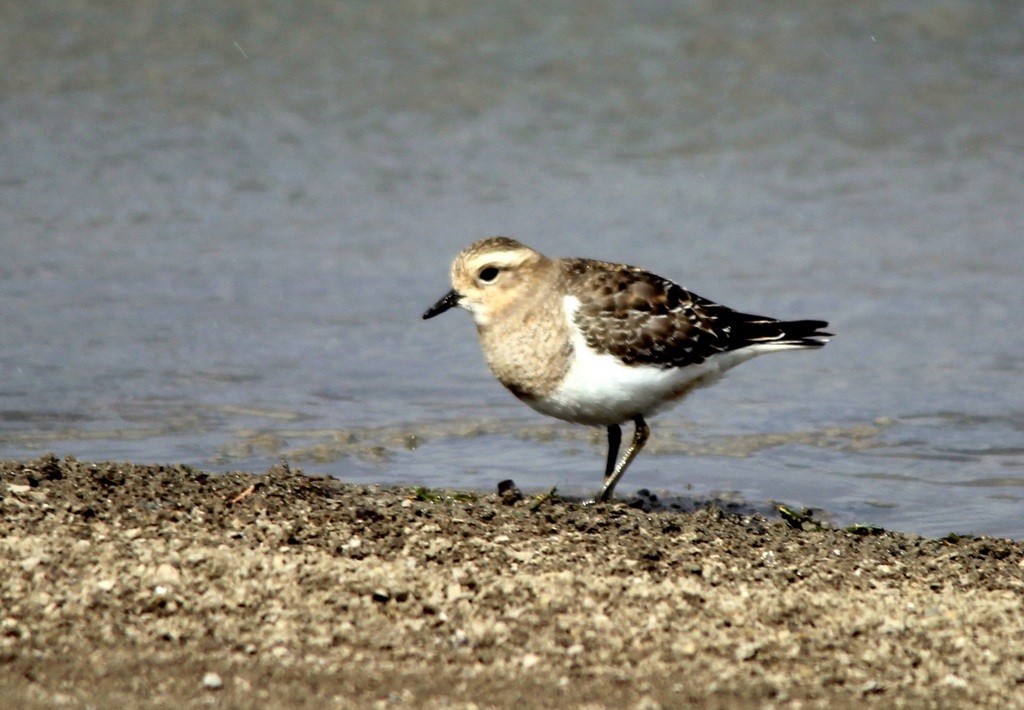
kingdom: Animalia
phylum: Chordata
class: Aves
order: Charadriiformes
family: Charadriidae
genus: Charadrius
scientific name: Charadrius modestus
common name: Rufous-chested plover
